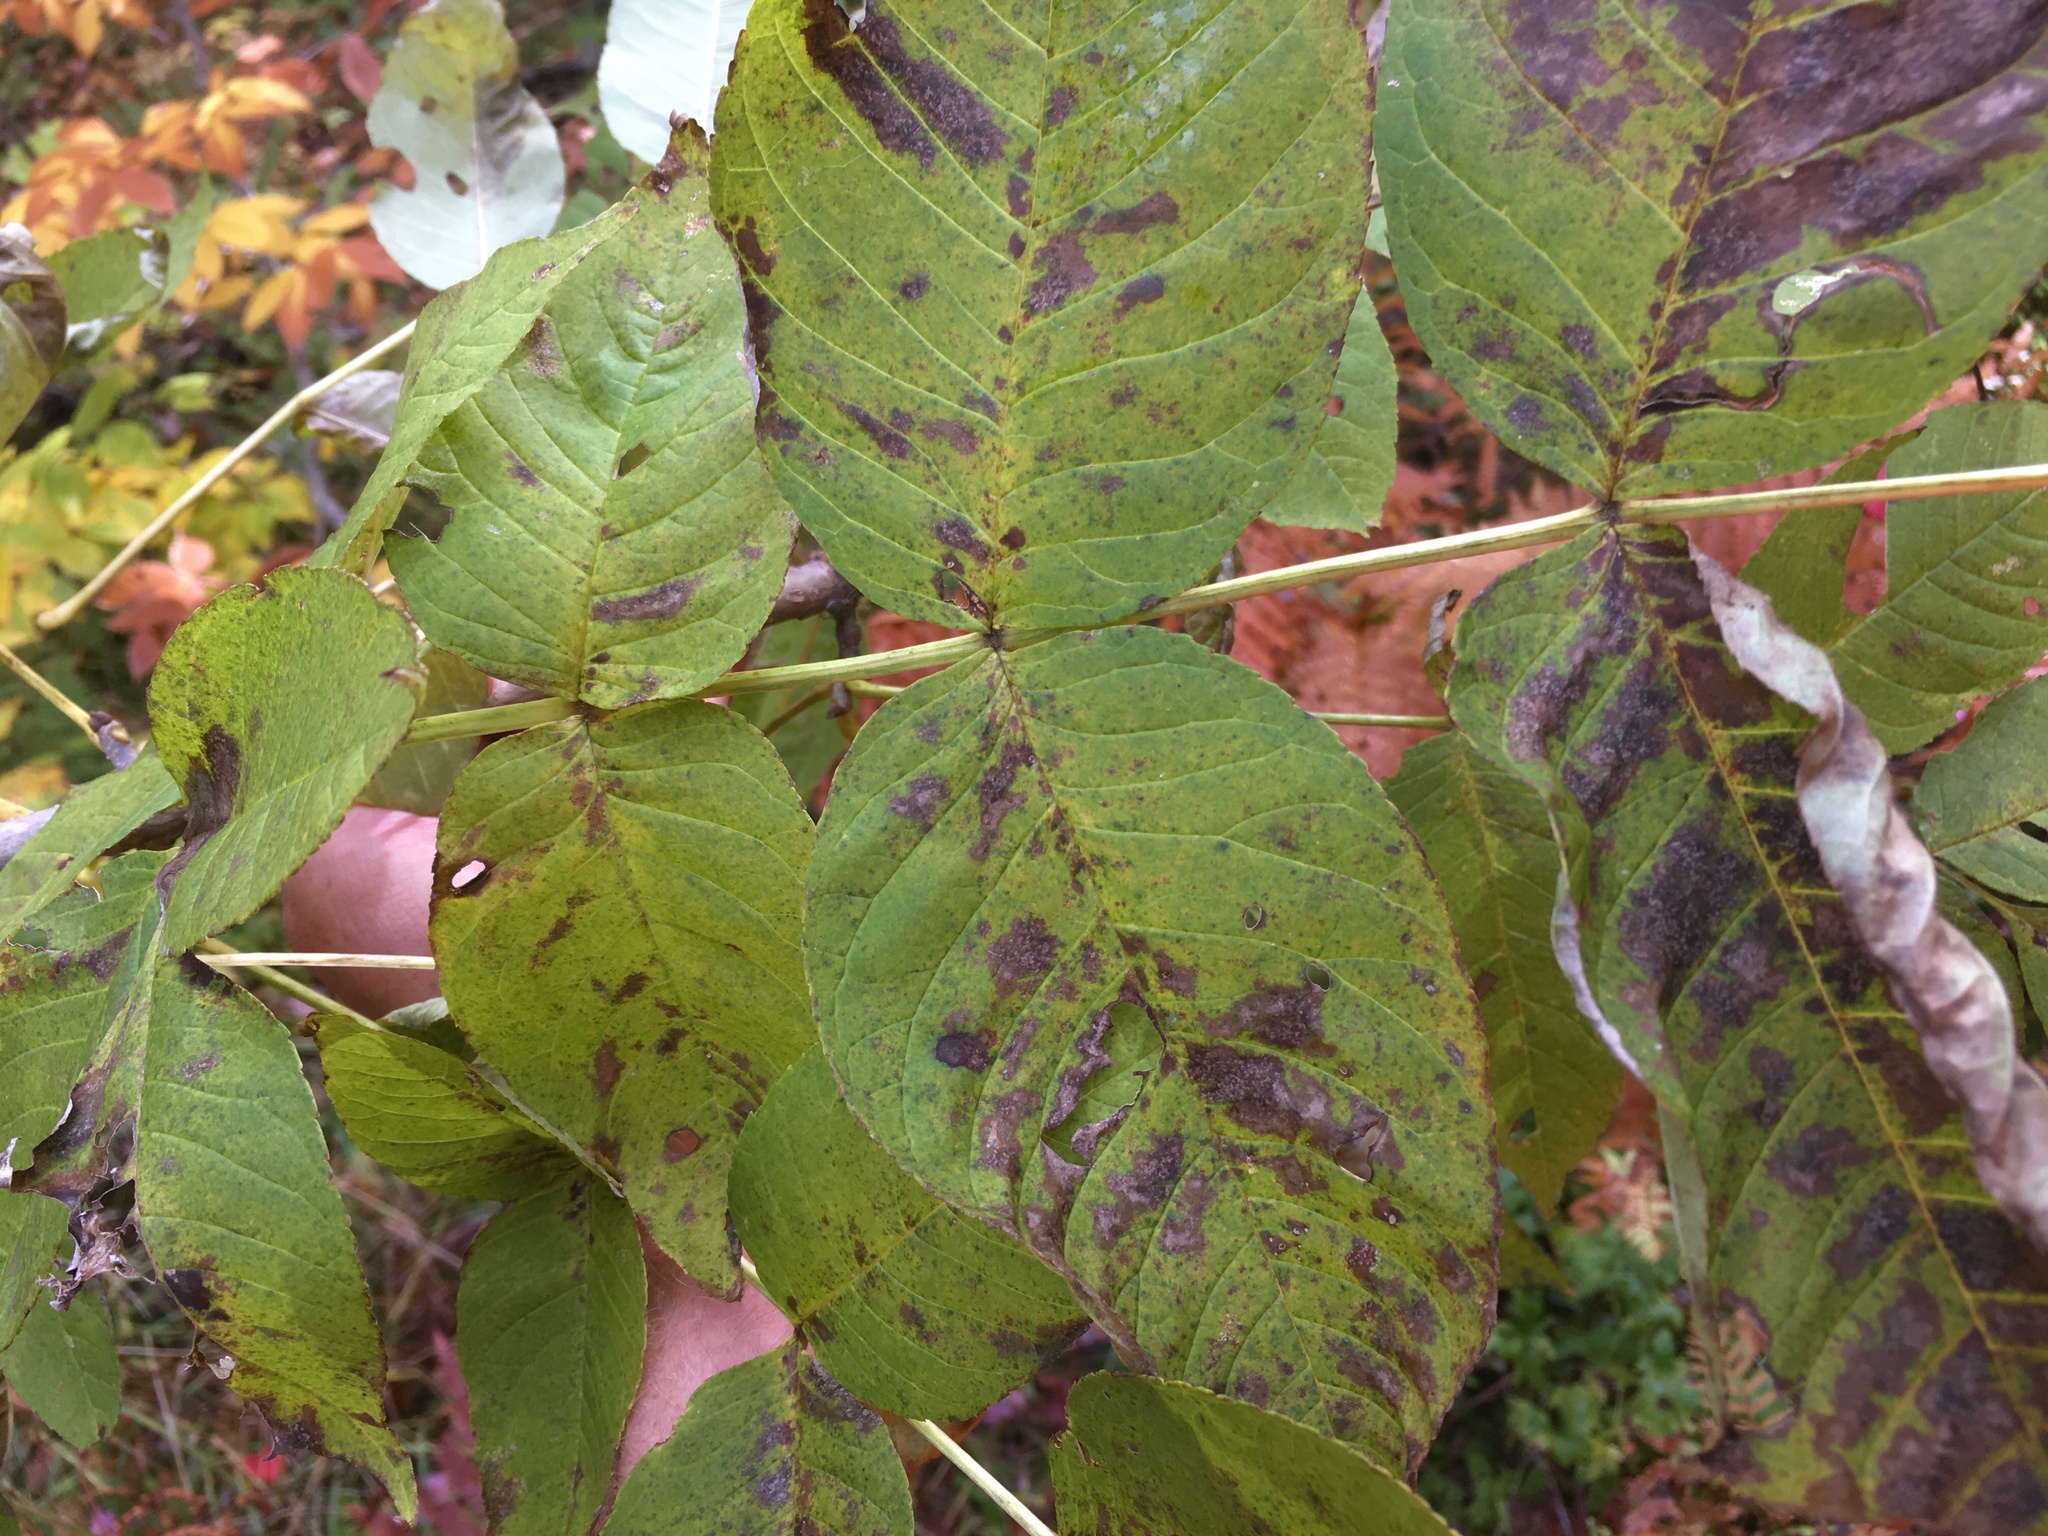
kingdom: Plantae
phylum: Tracheophyta
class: Magnoliopsida
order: Lamiales
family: Oleaceae
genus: Fraxinus
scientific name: Fraxinus nigra
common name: Black ash
